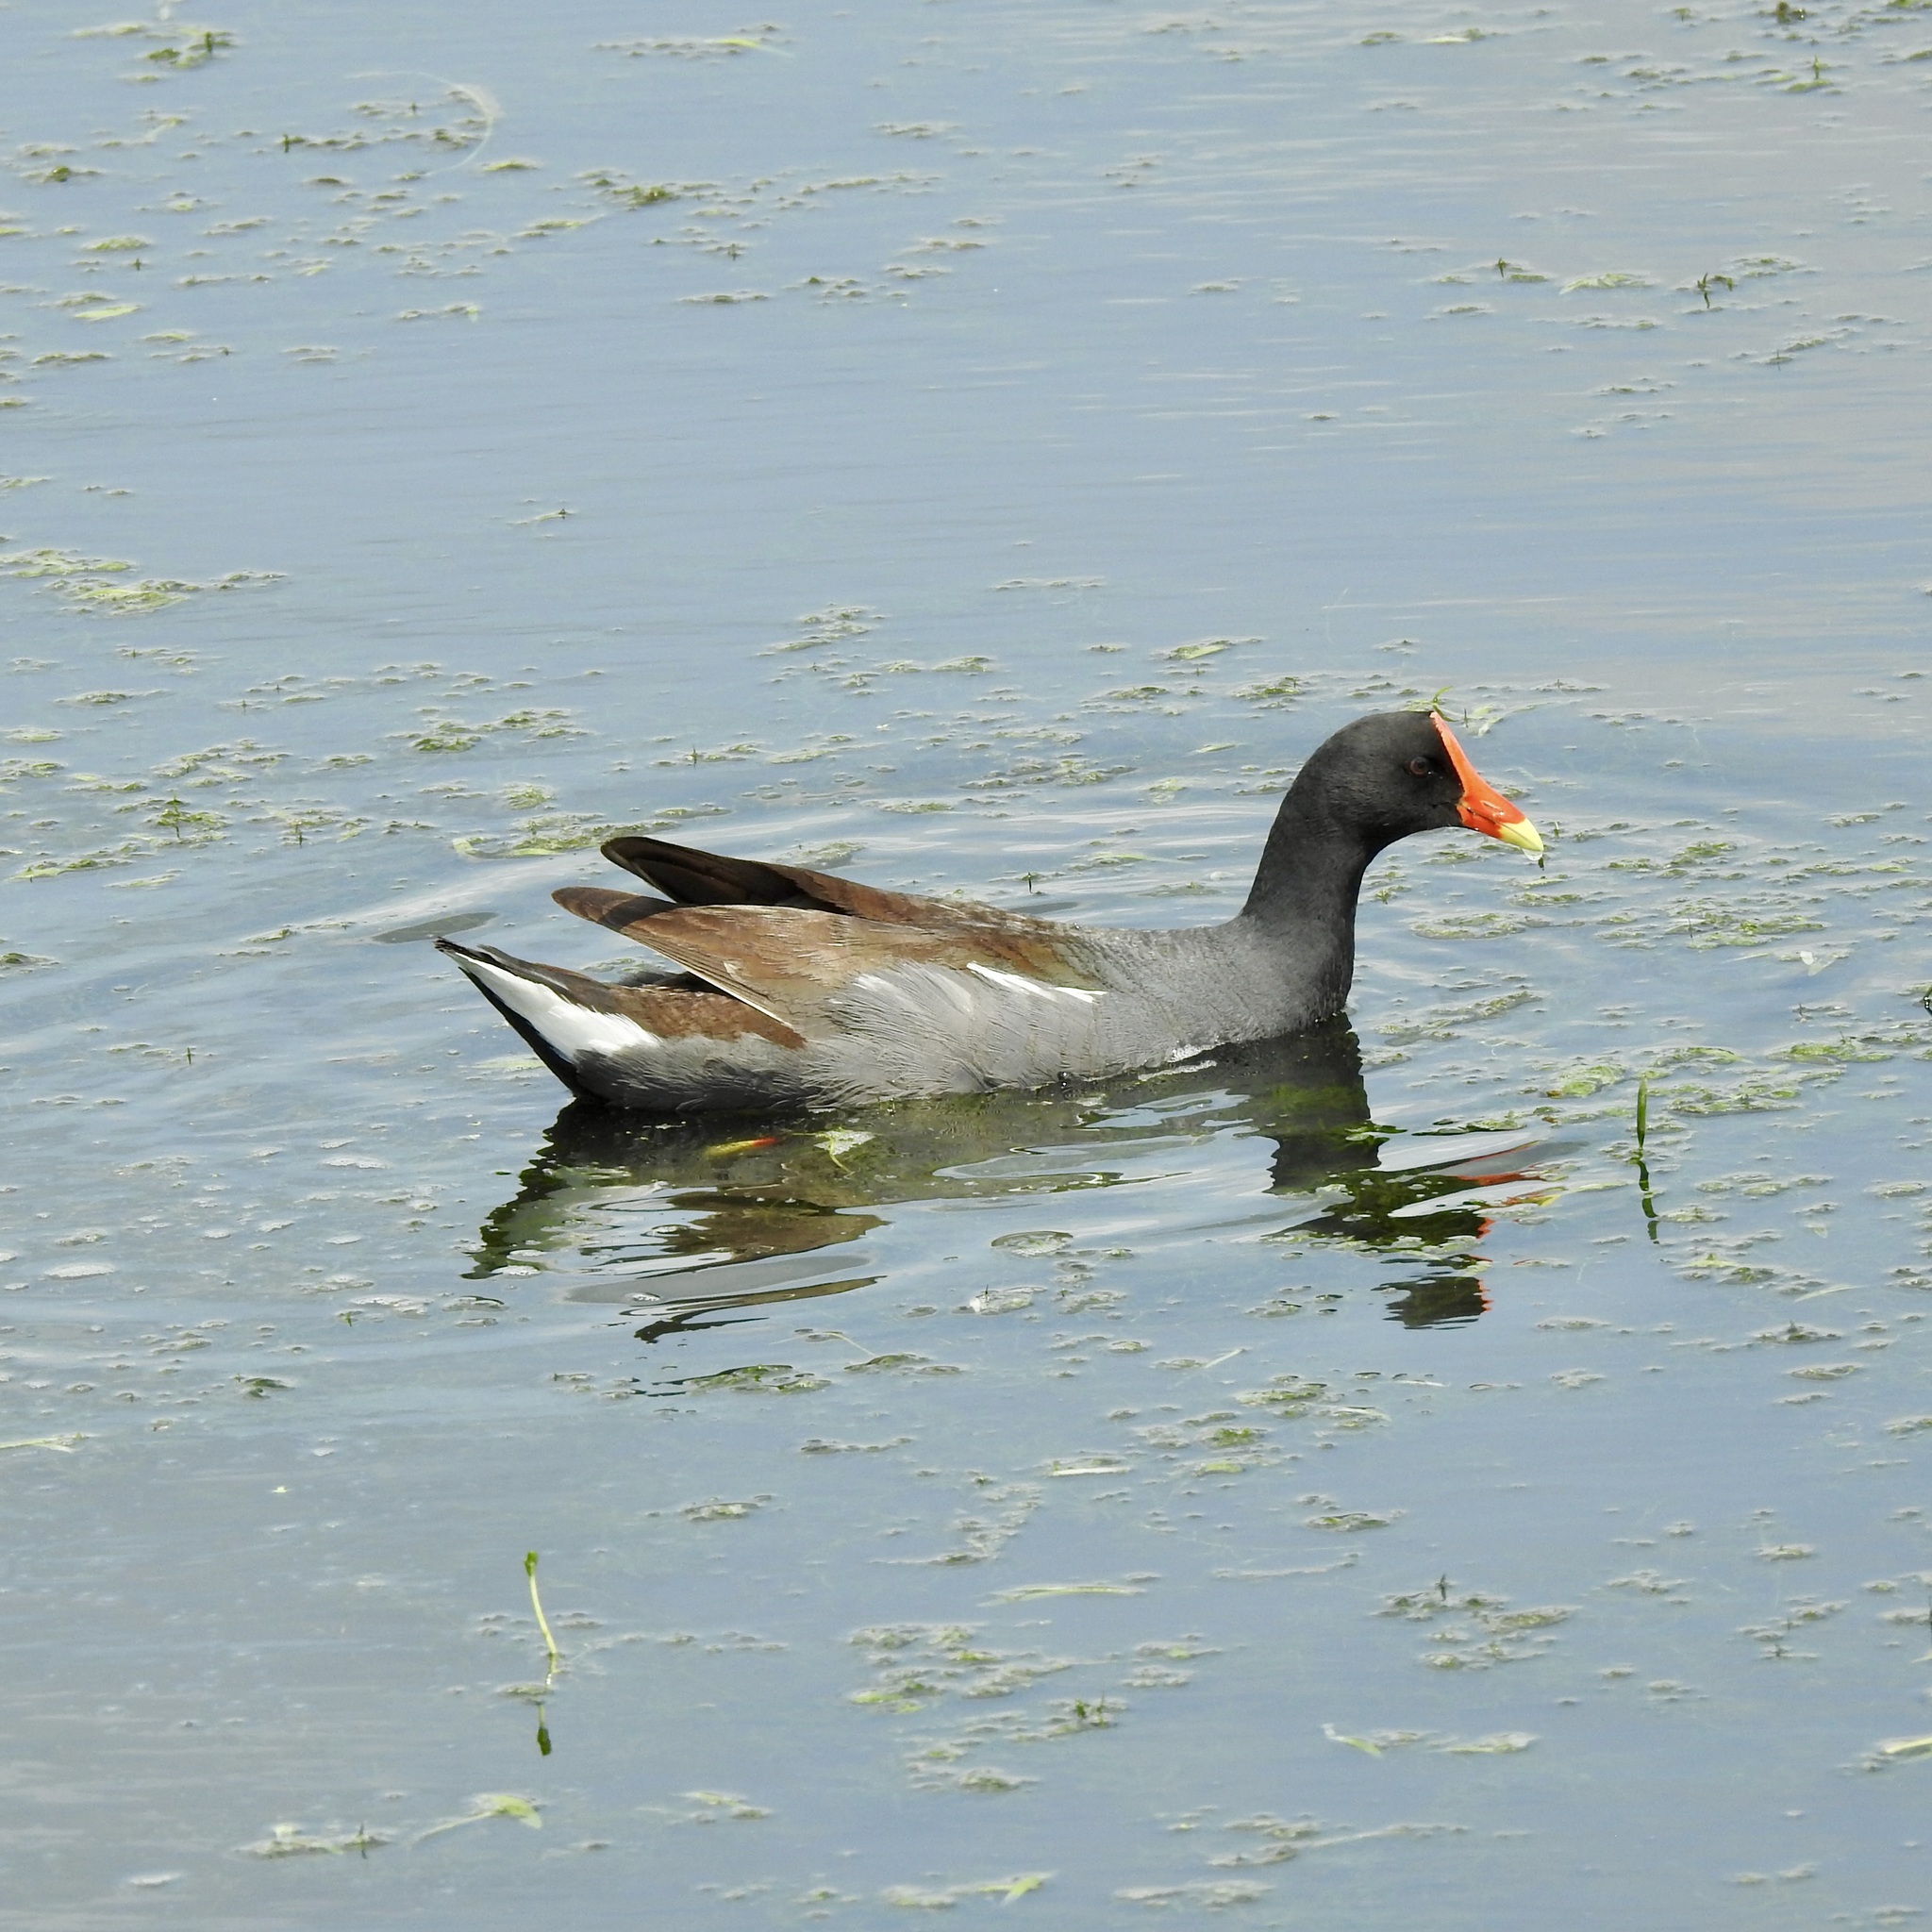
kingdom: Animalia
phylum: Chordata
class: Aves
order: Gruiformes
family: Rallidae
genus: Gallinula
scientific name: Gallinula chloropus
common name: Common moorhen
